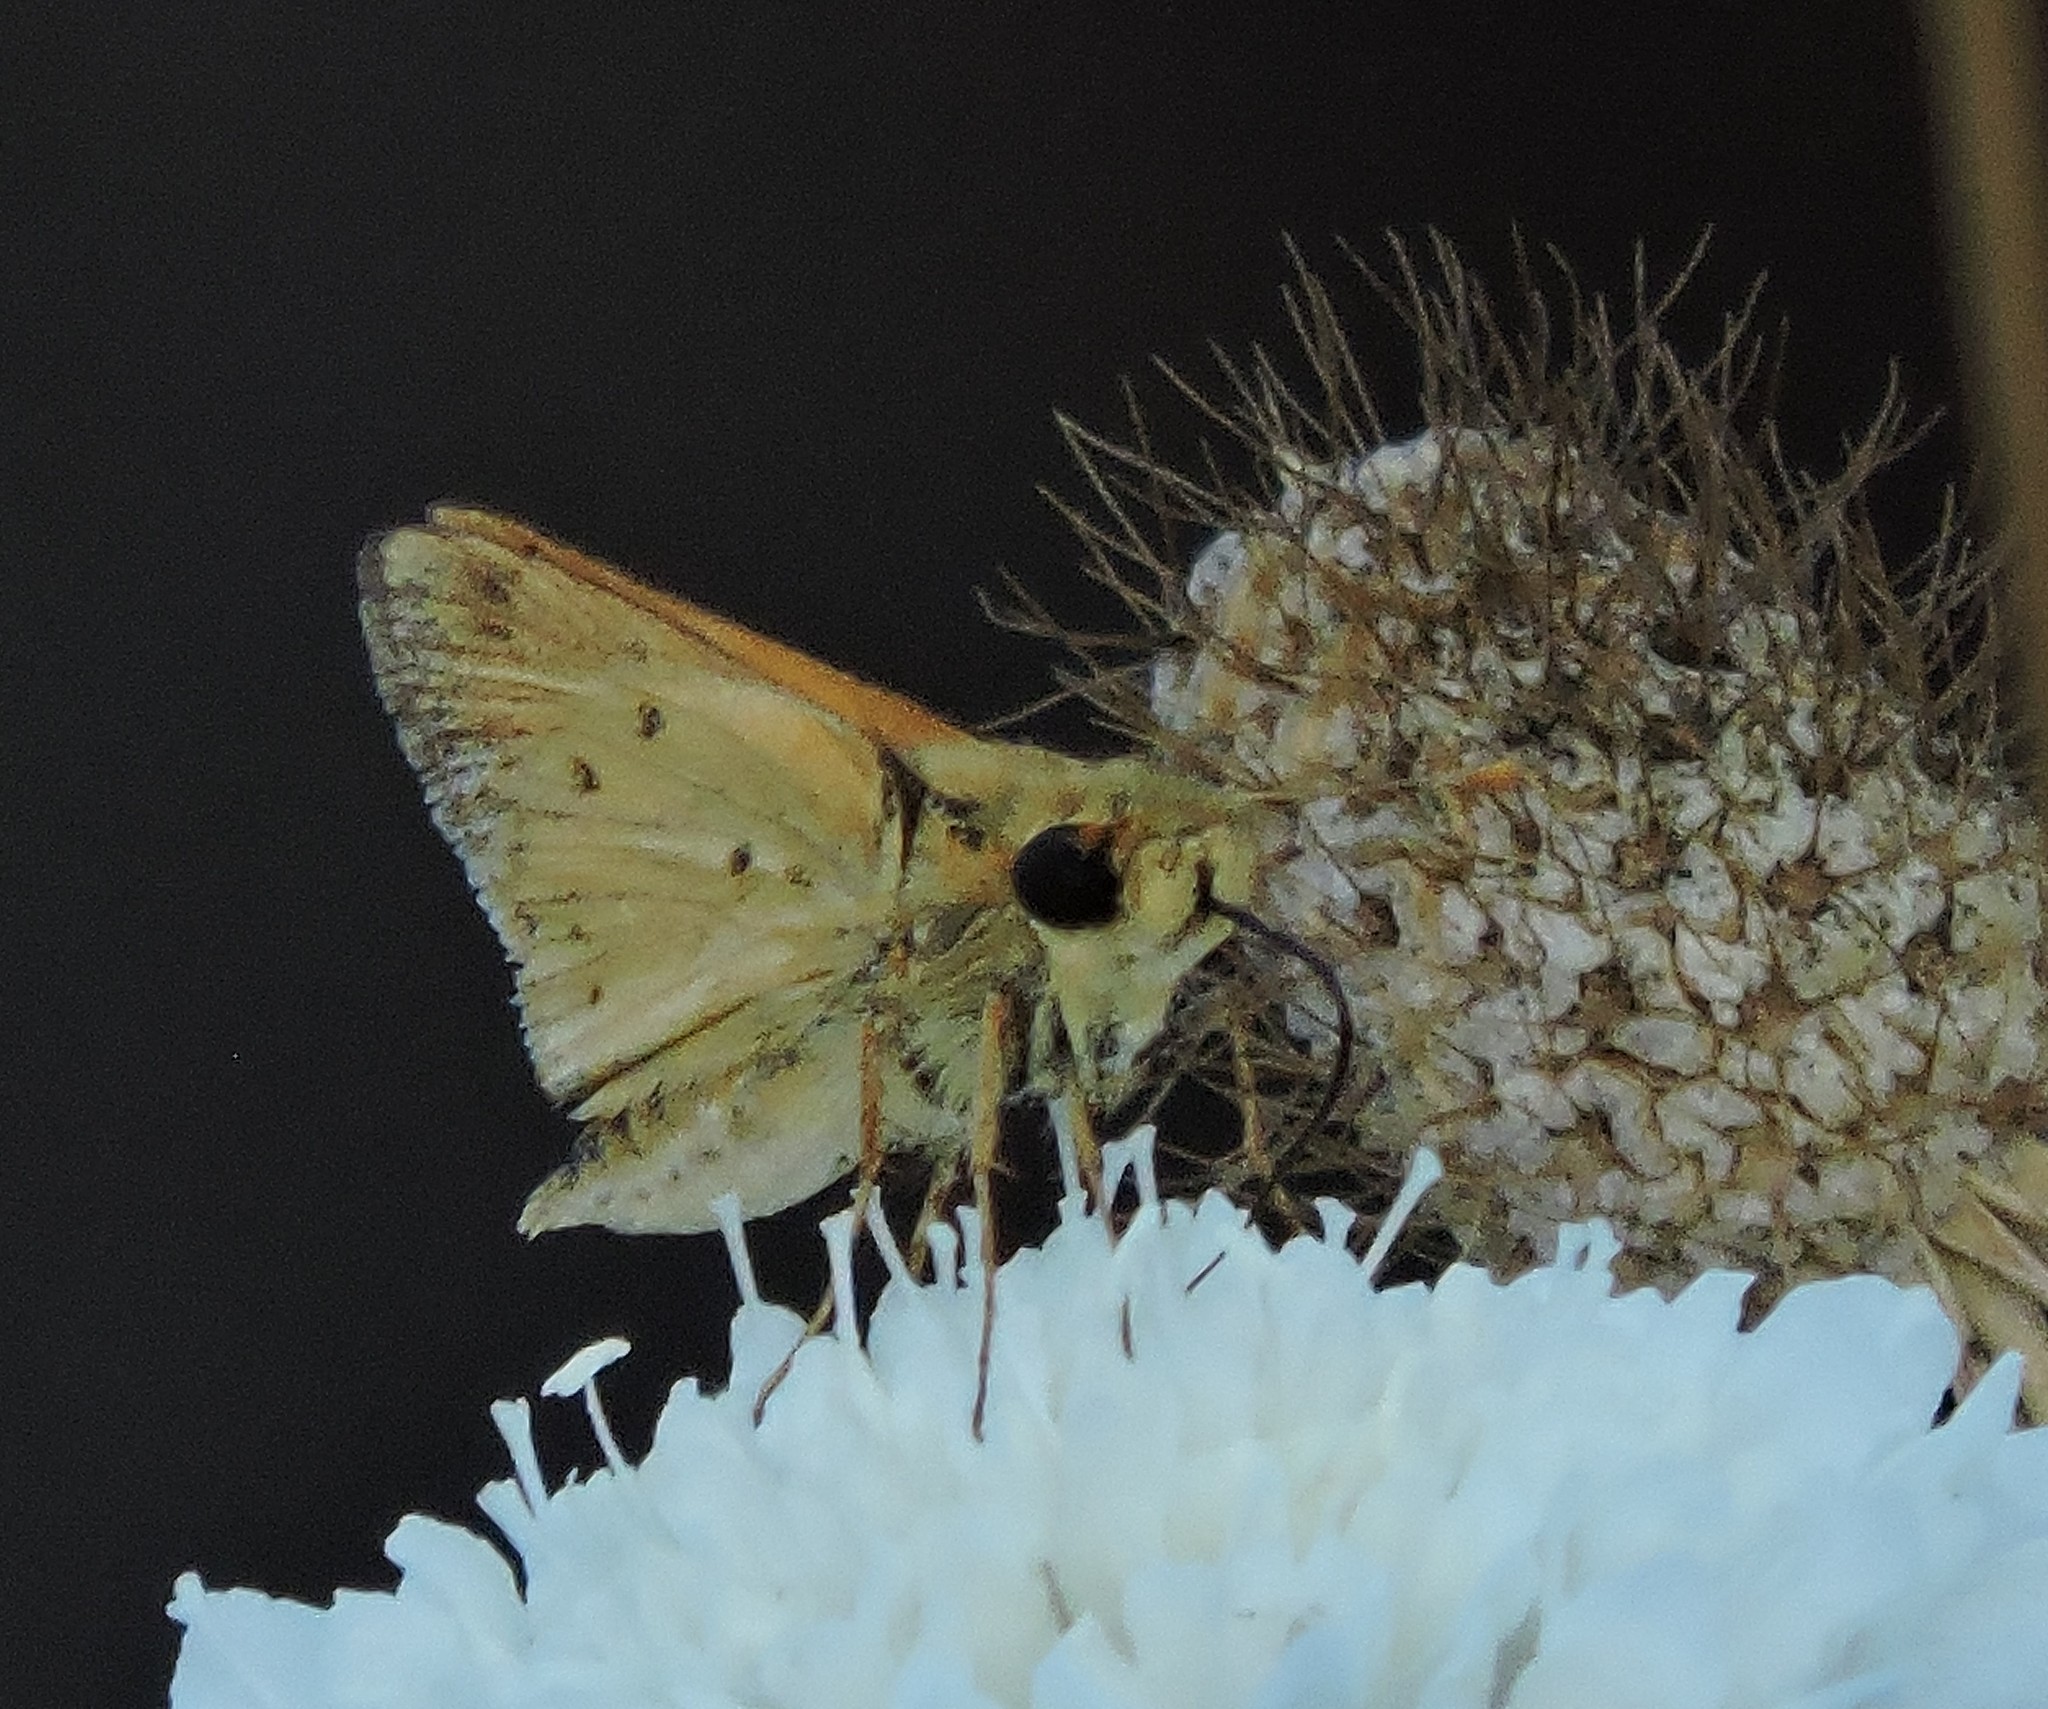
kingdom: Animalia
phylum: Arthropoda
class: Insecta
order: Lepidoptera
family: Hesperiidae
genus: Hylephila
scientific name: Hylephila phyleus
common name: Fiery skipper
